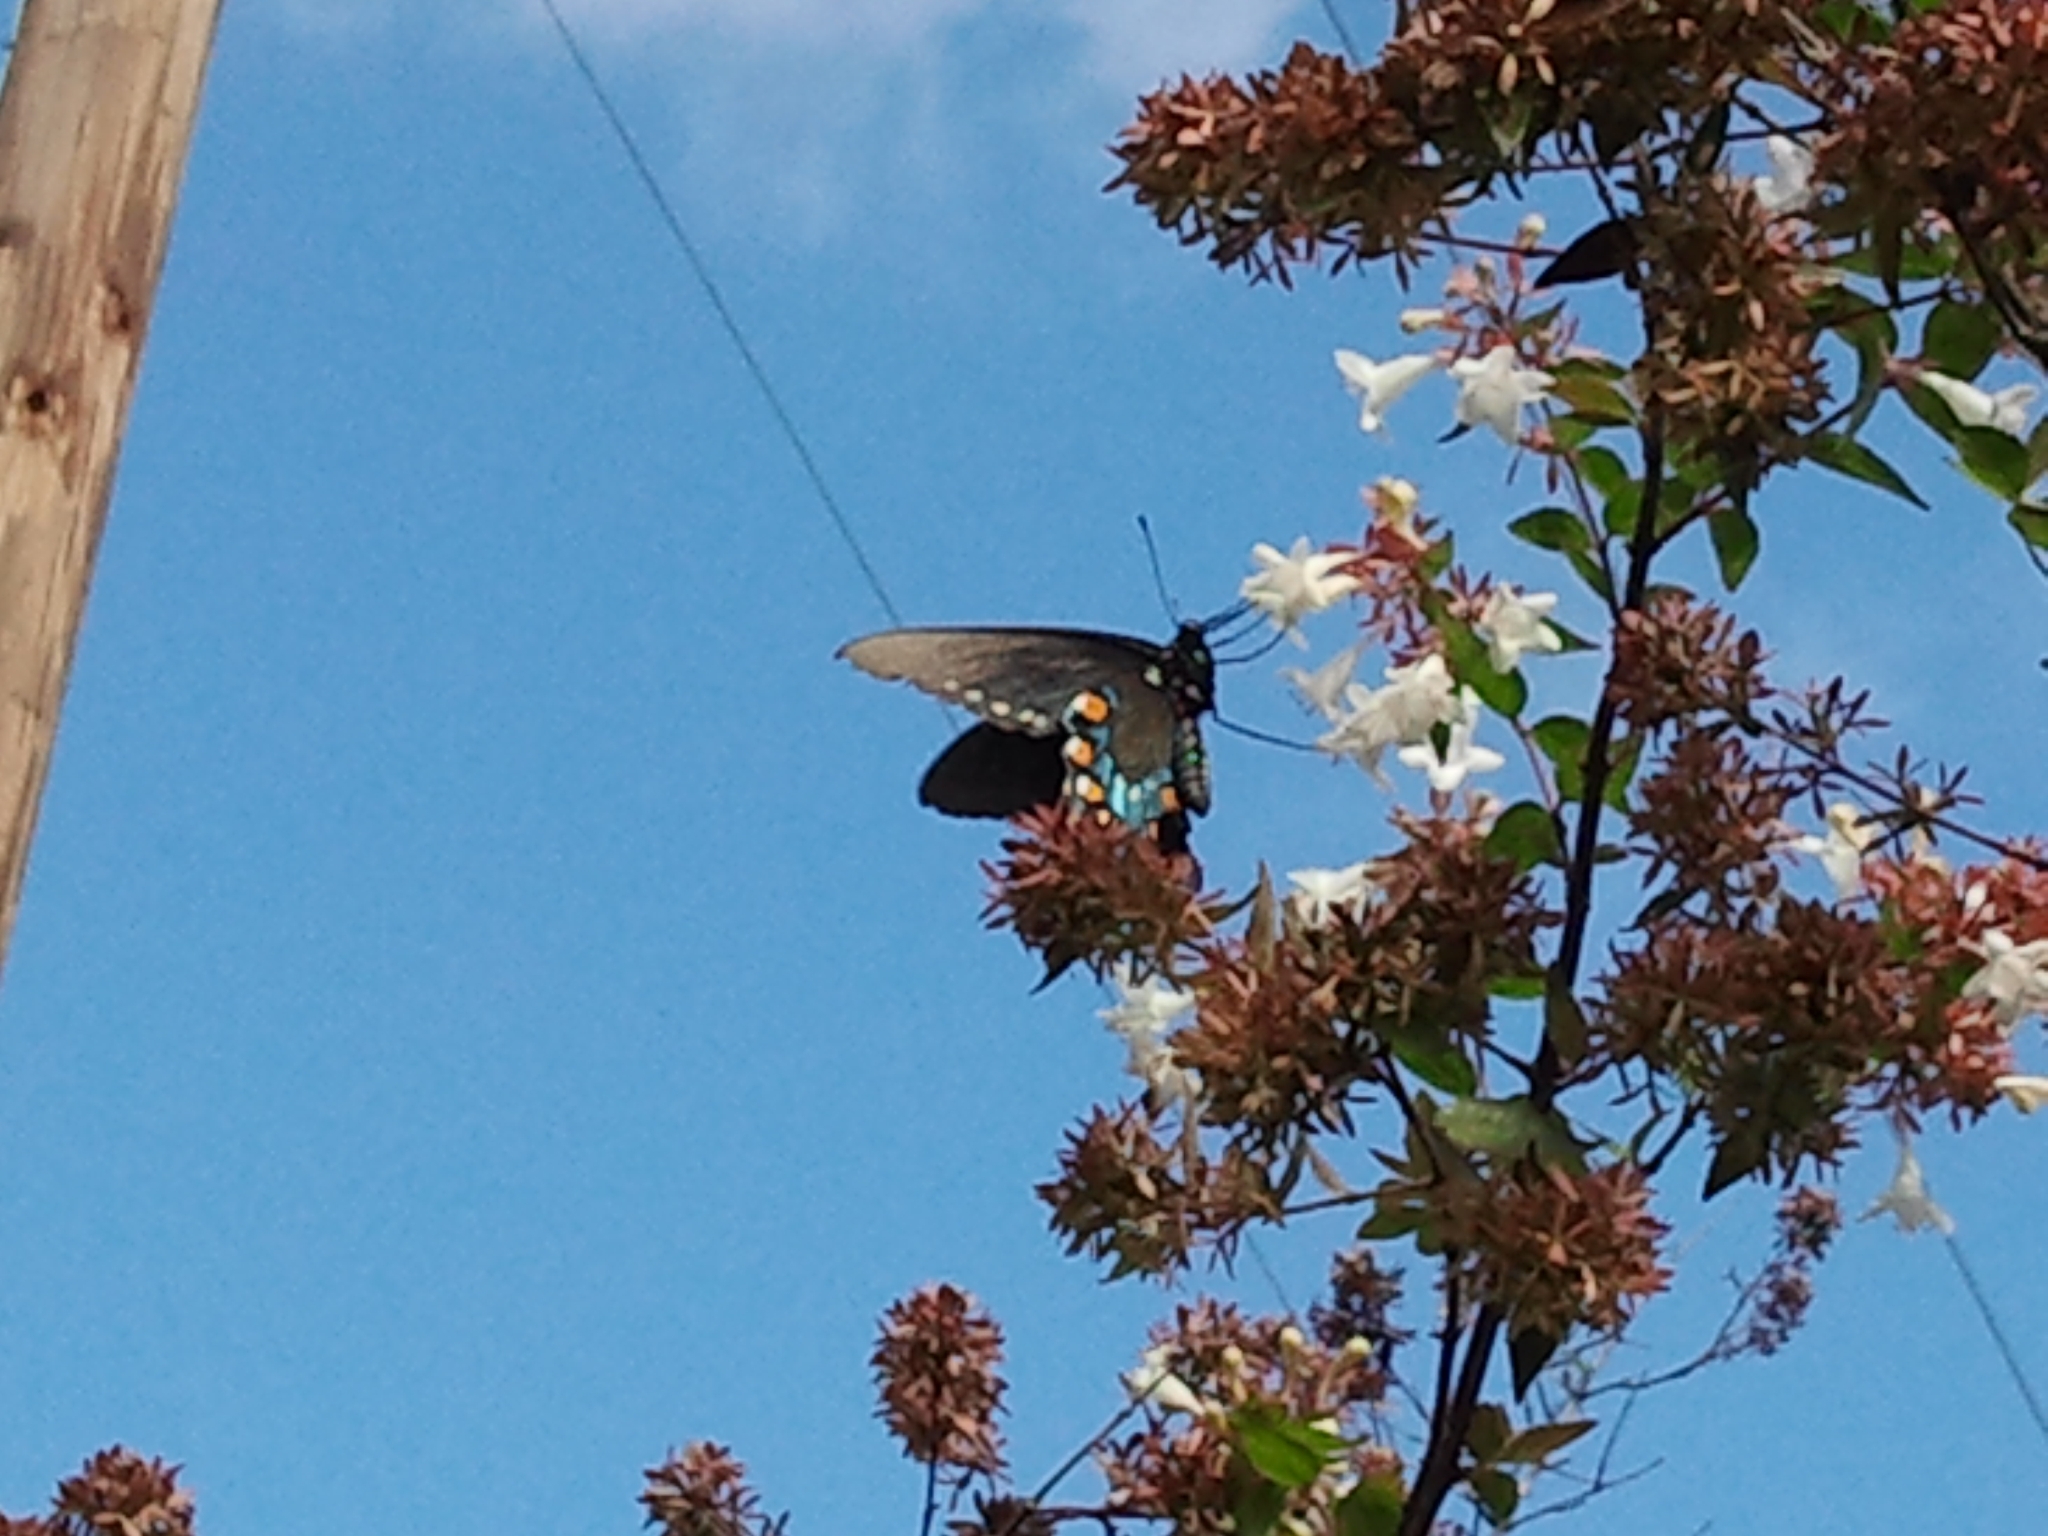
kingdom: Animalia
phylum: Arthropoda
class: Insecta
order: Lepidoptera
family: Papilionidae
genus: Battus
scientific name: Battus philenor
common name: Pipevine swallowtail
